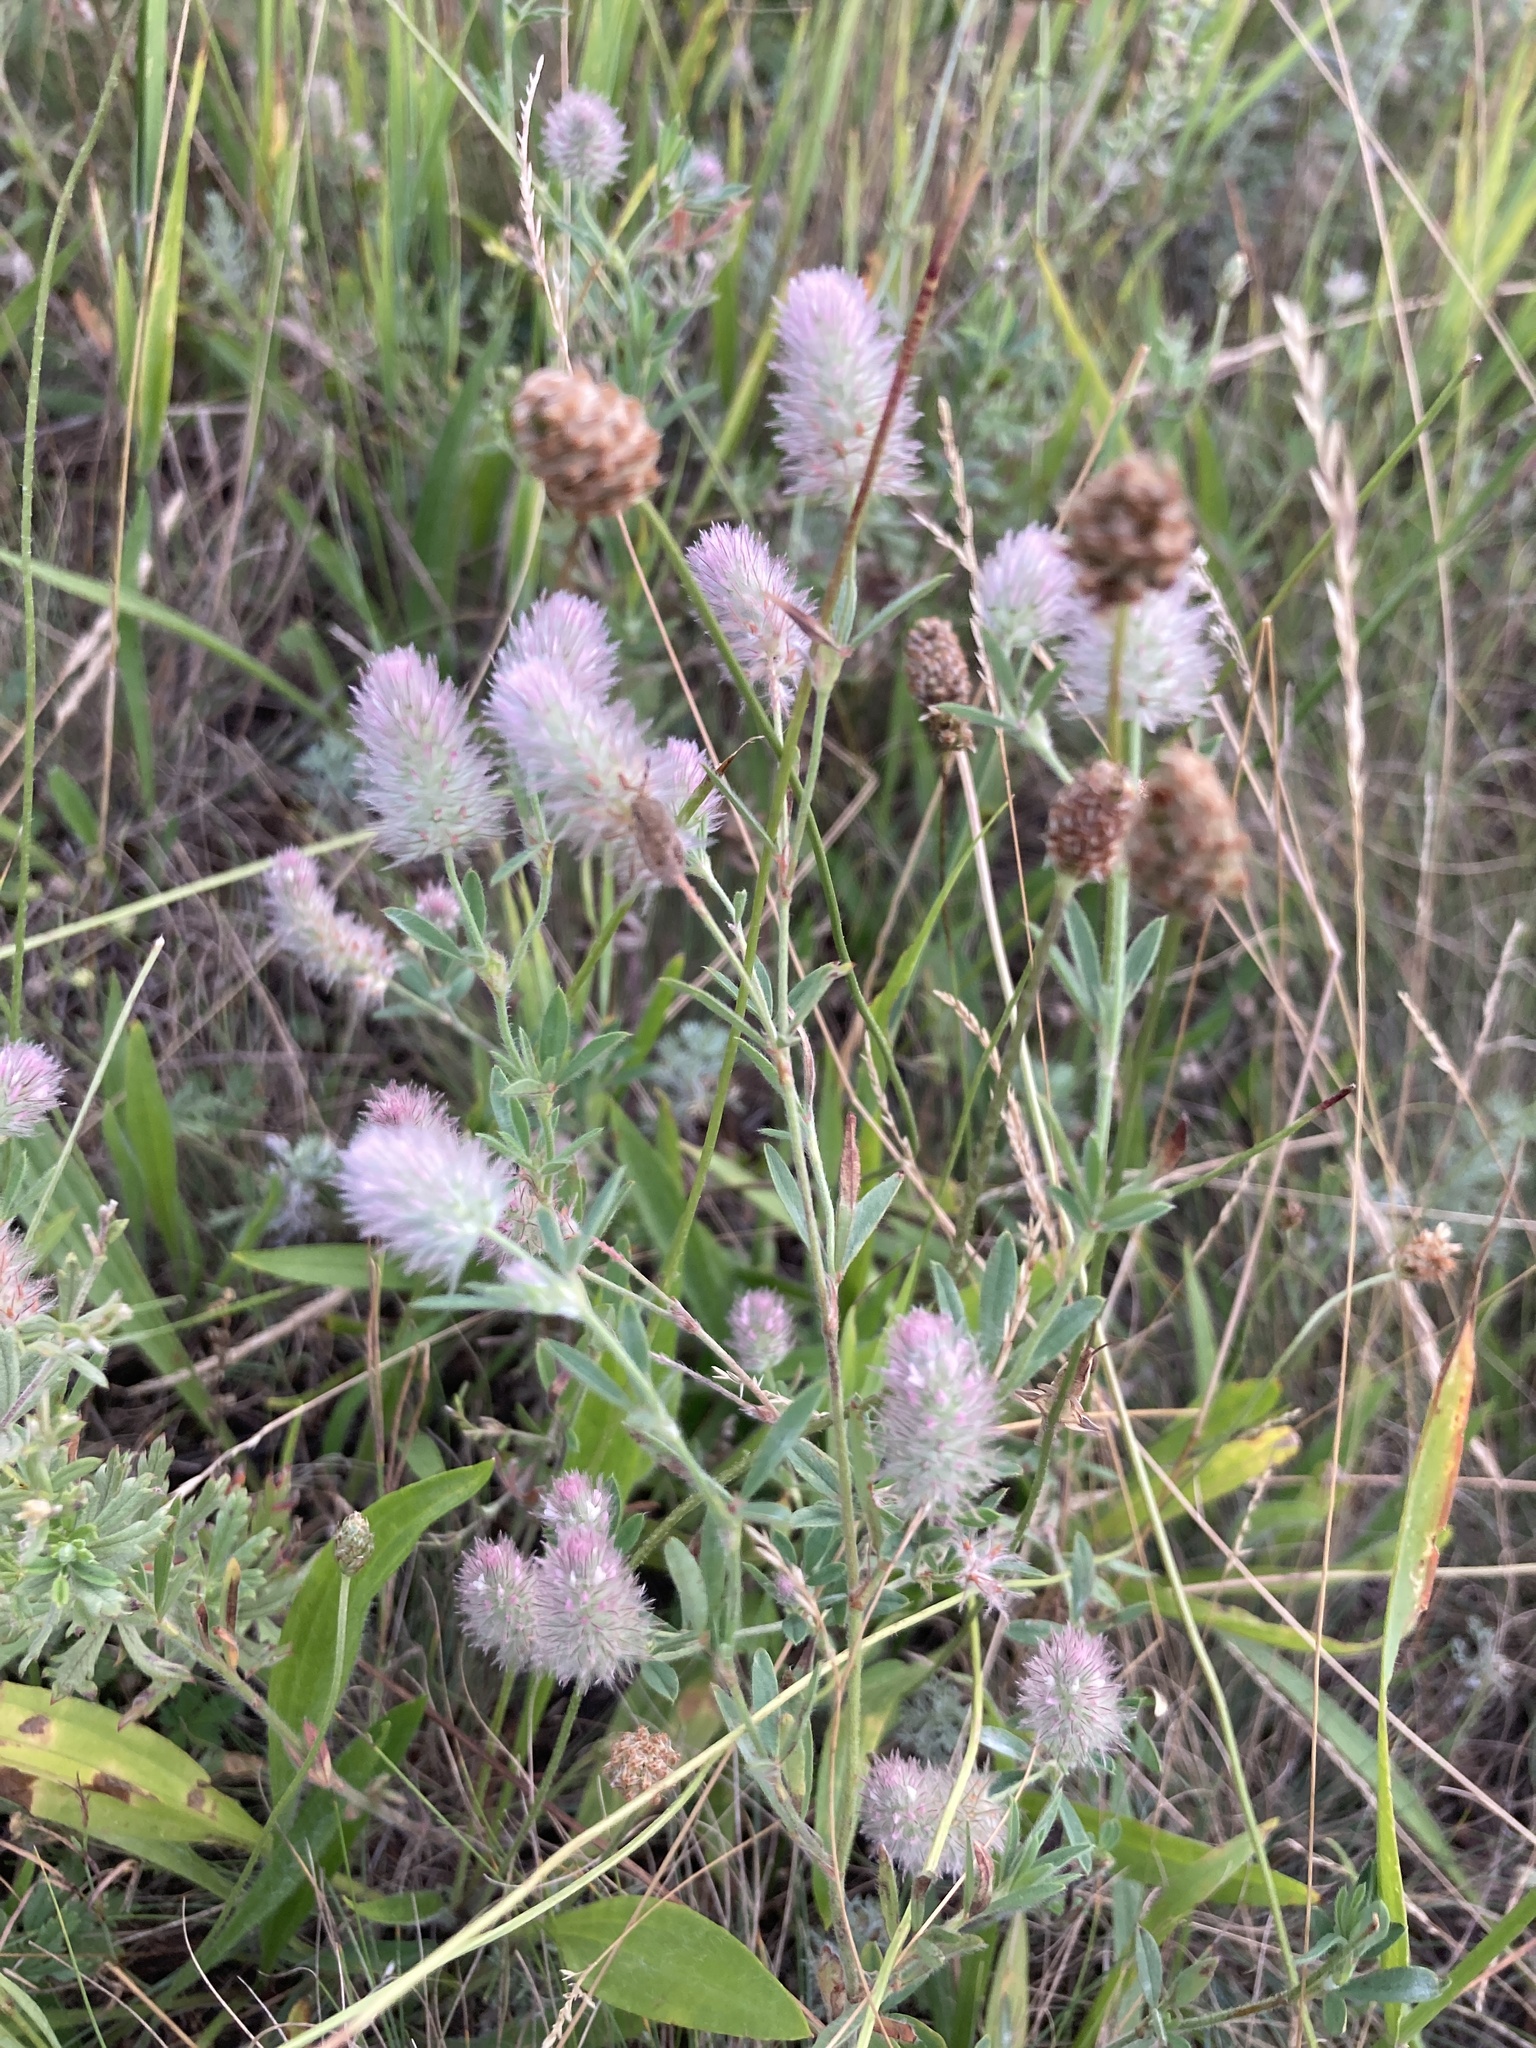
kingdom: Plantae
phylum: Tracheophyta
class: Magnoliopsida
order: Fabales
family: Fabaceae
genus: Trifolium
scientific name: Trifolium arvense
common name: Hare's-foot clover
